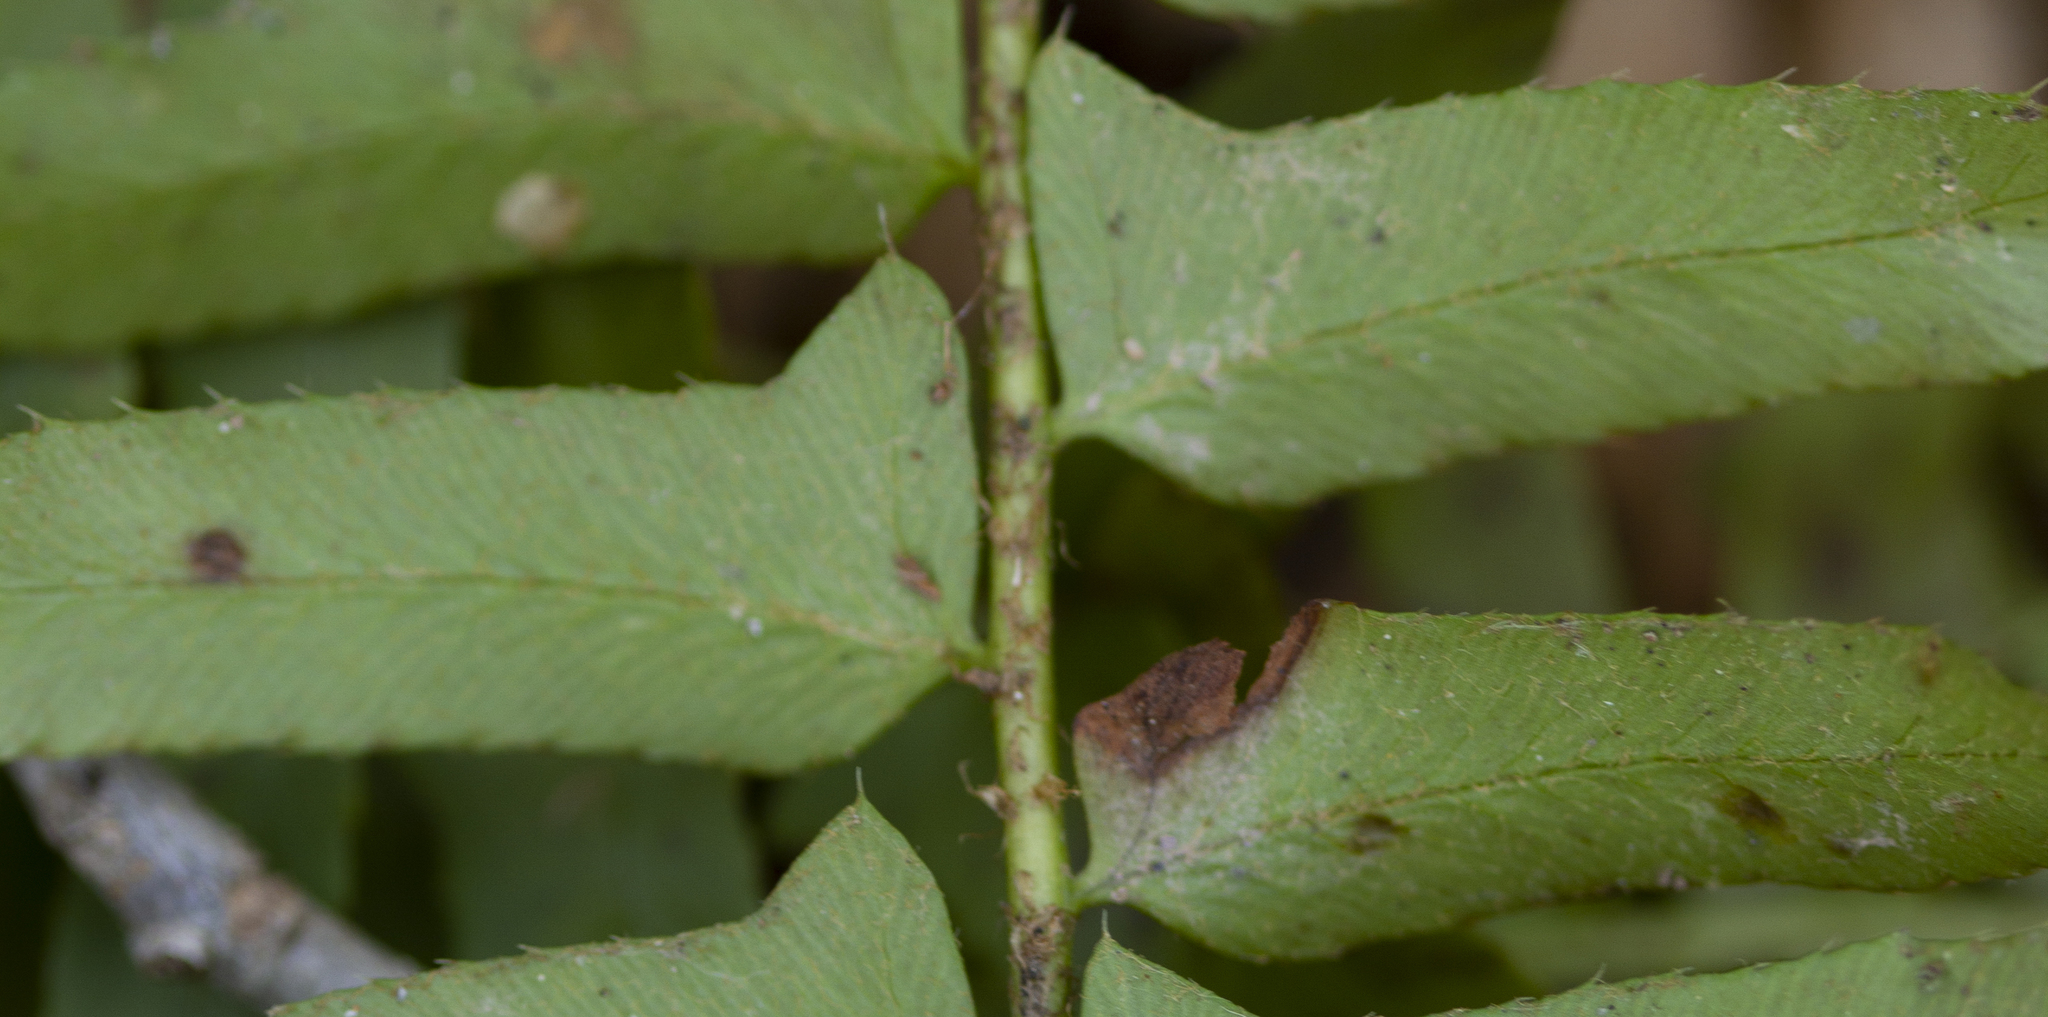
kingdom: Plantae
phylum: Tracheophyta
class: Polypodiopsida
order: Polypodiales
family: Dryopteridaceae
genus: Polystichum
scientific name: Polystichum acrostichoides
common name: Christmas fern
